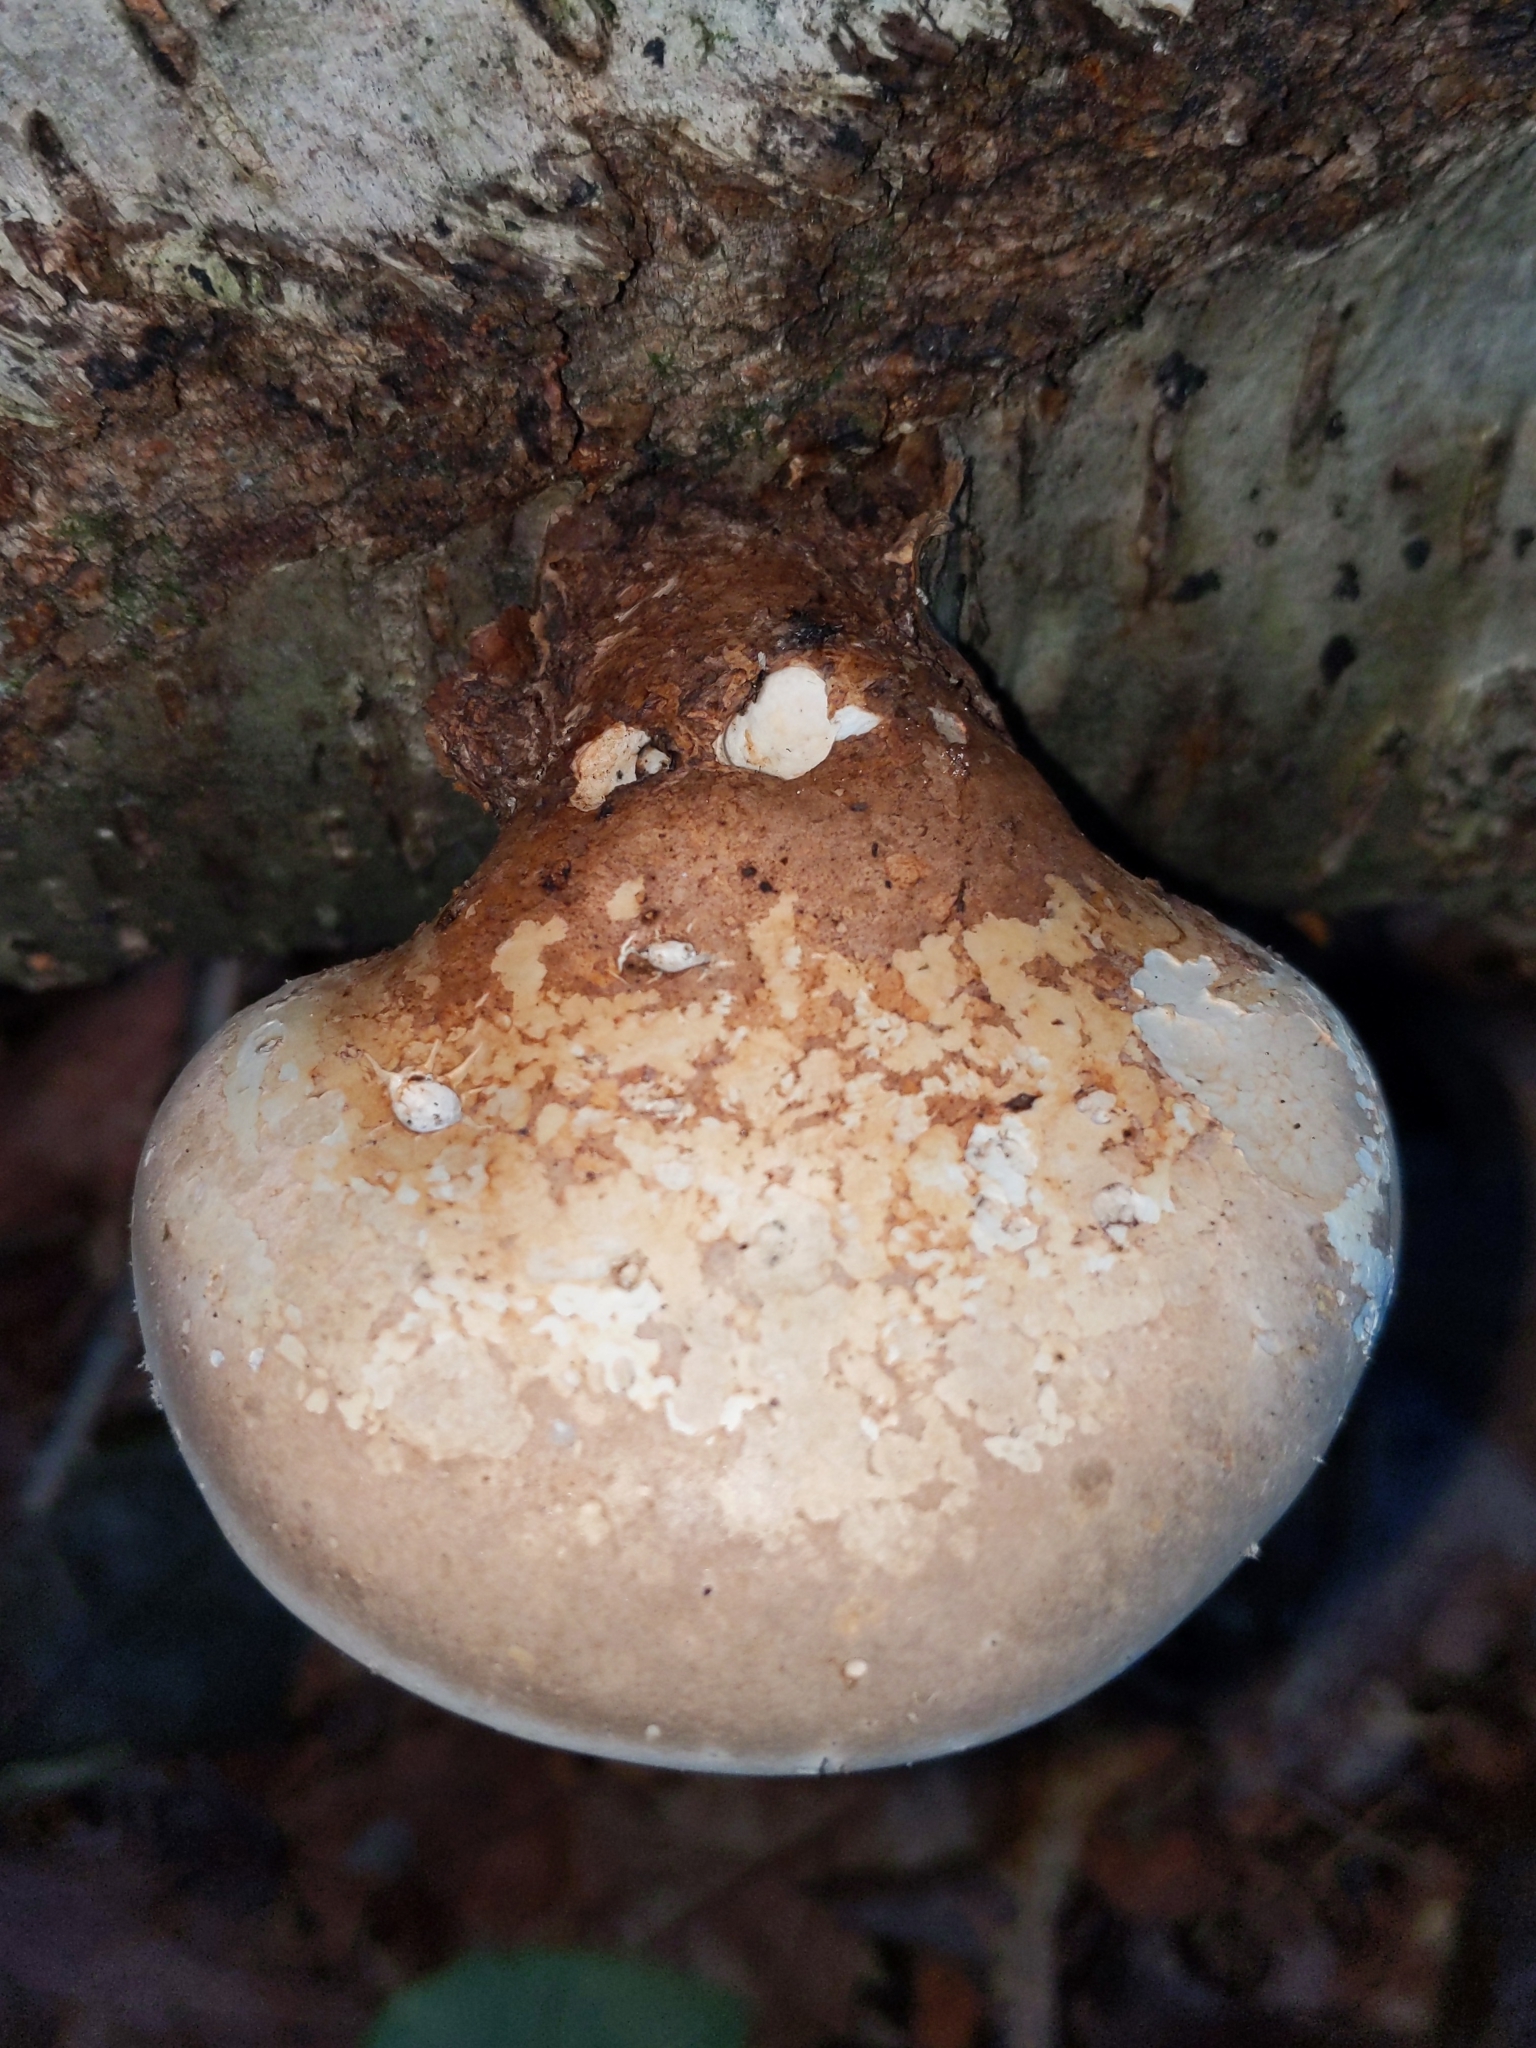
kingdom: Fungi
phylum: Basidiomycota
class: Agaricomycetes
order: Polyporales
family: Fomitopsidaceae
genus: Fomitopsis
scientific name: Fomitopsis betulina
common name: Birch polypore
